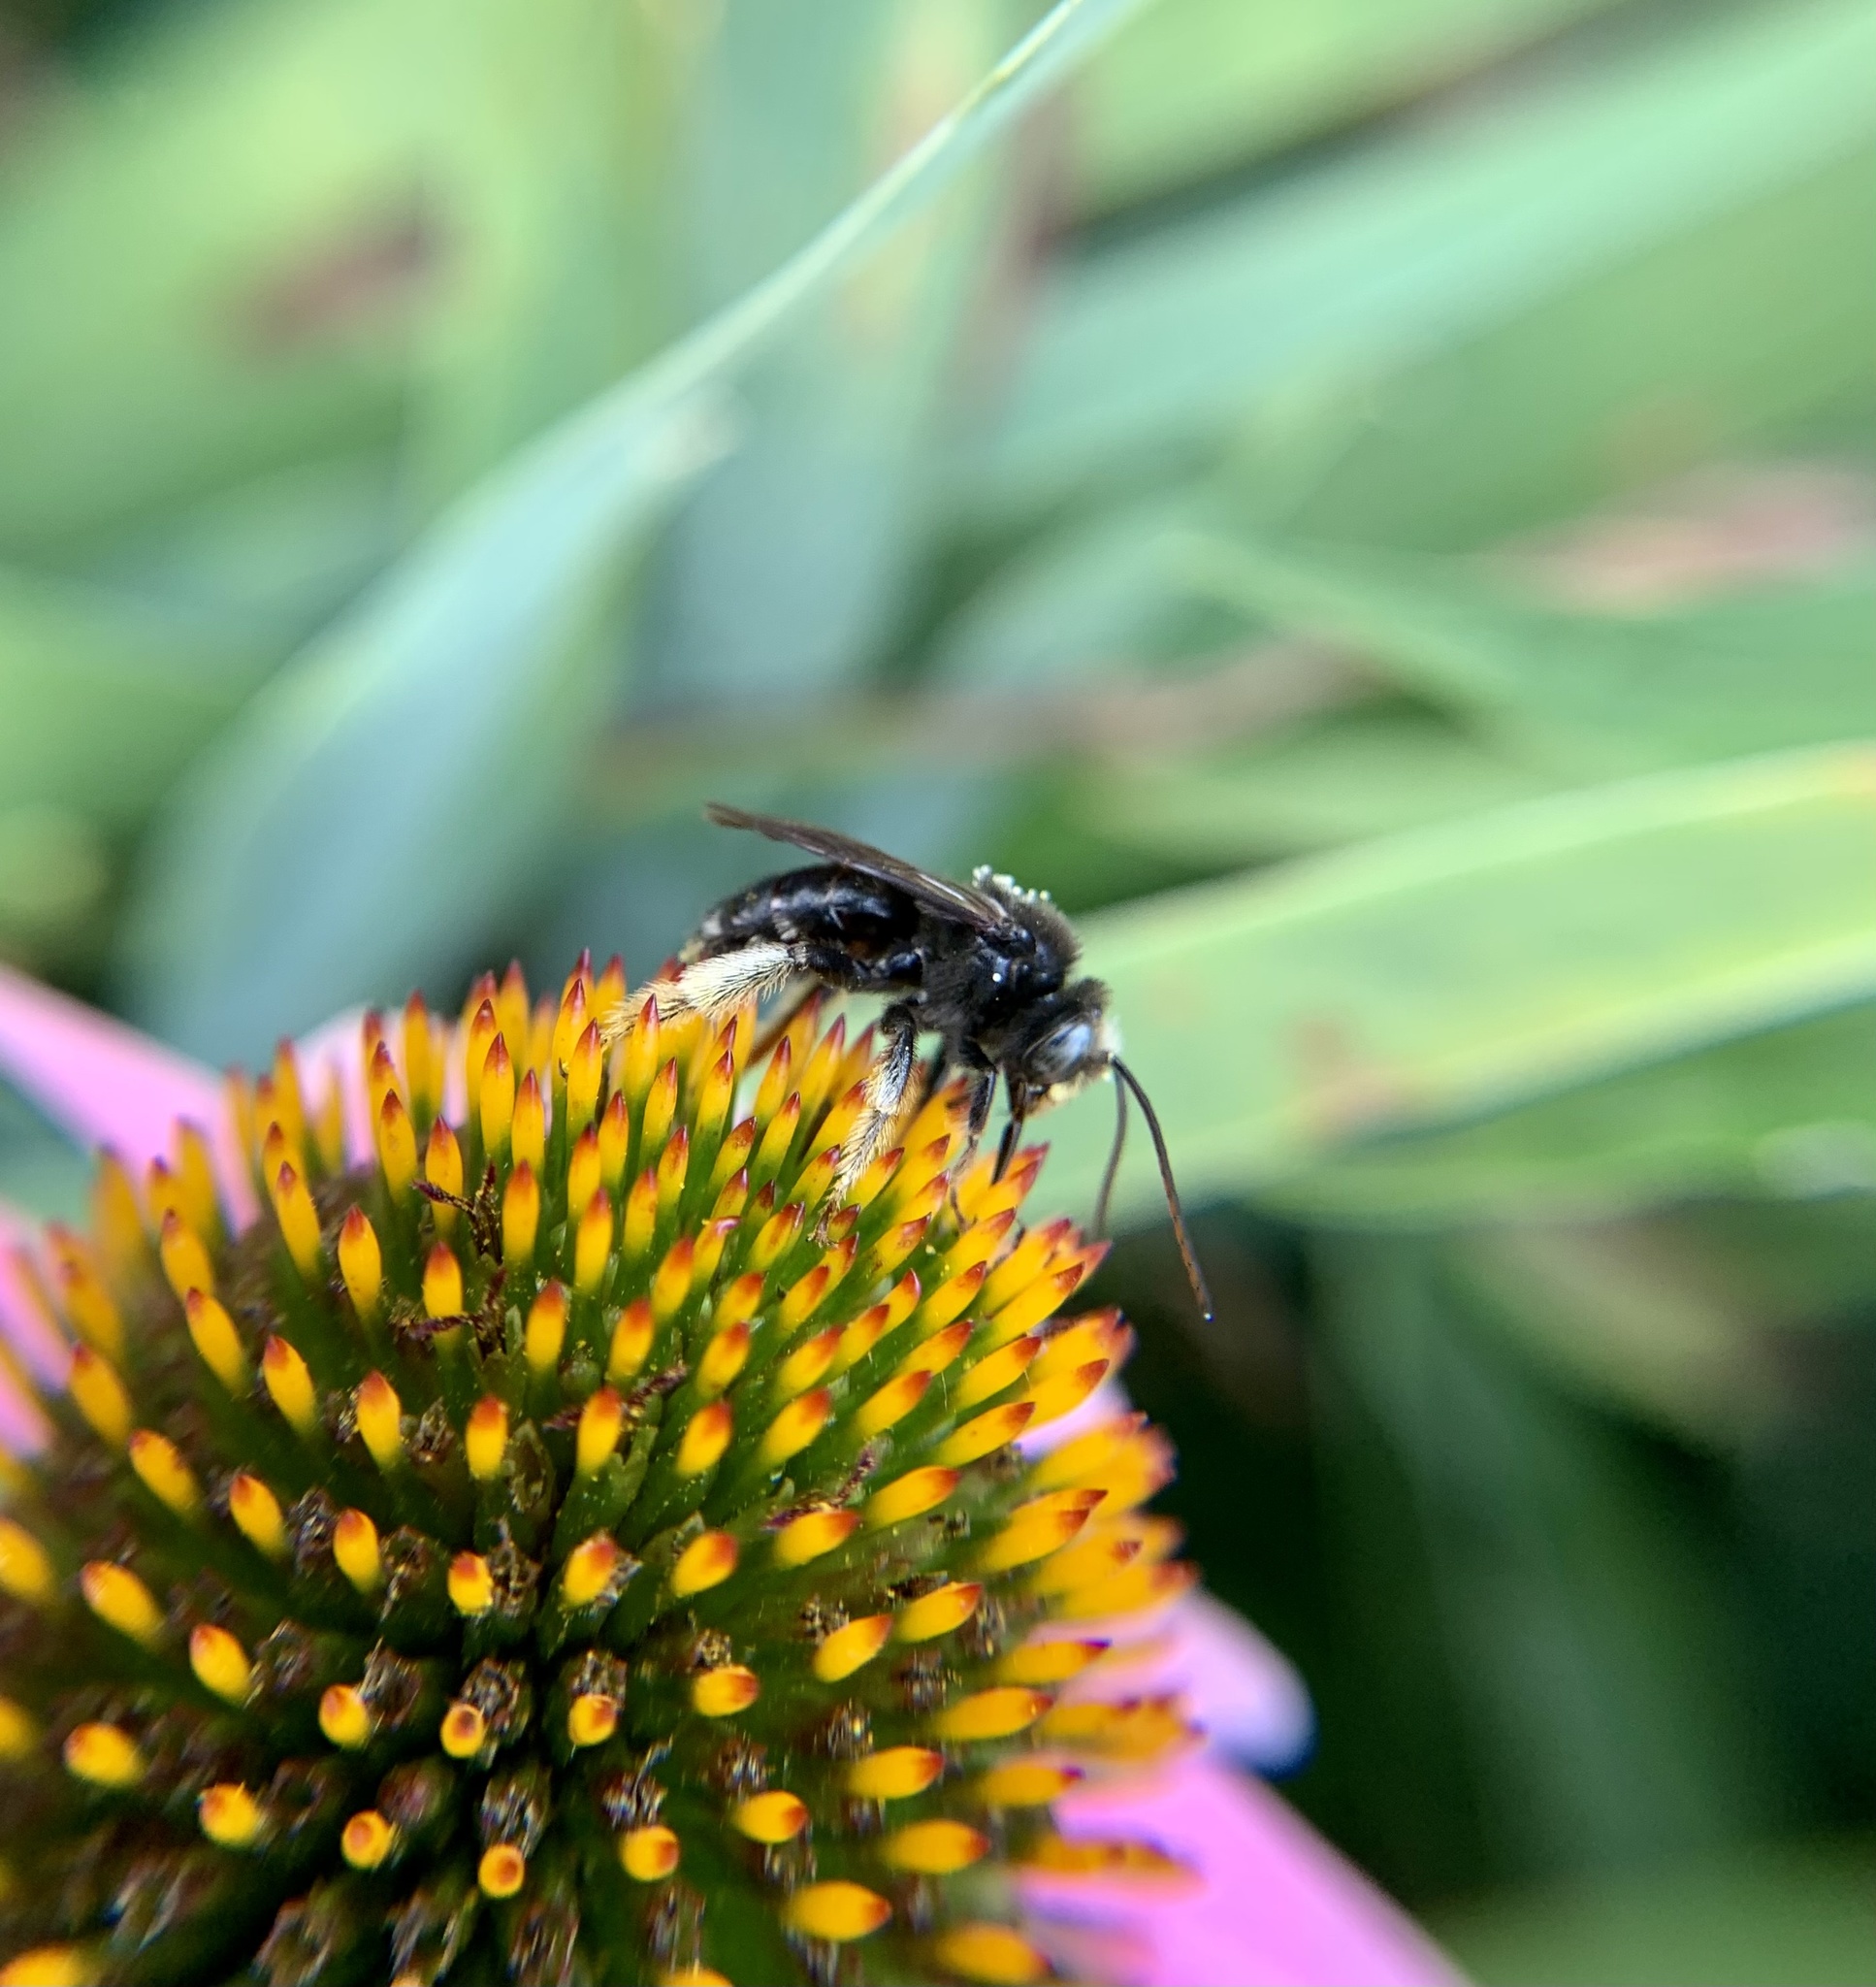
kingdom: Animalia
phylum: Arthropoda
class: Insecta
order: Hymenoptera
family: Apidae
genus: Melissodes
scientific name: Melissodes bimaculatus
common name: Two-spotted long-horned bee
